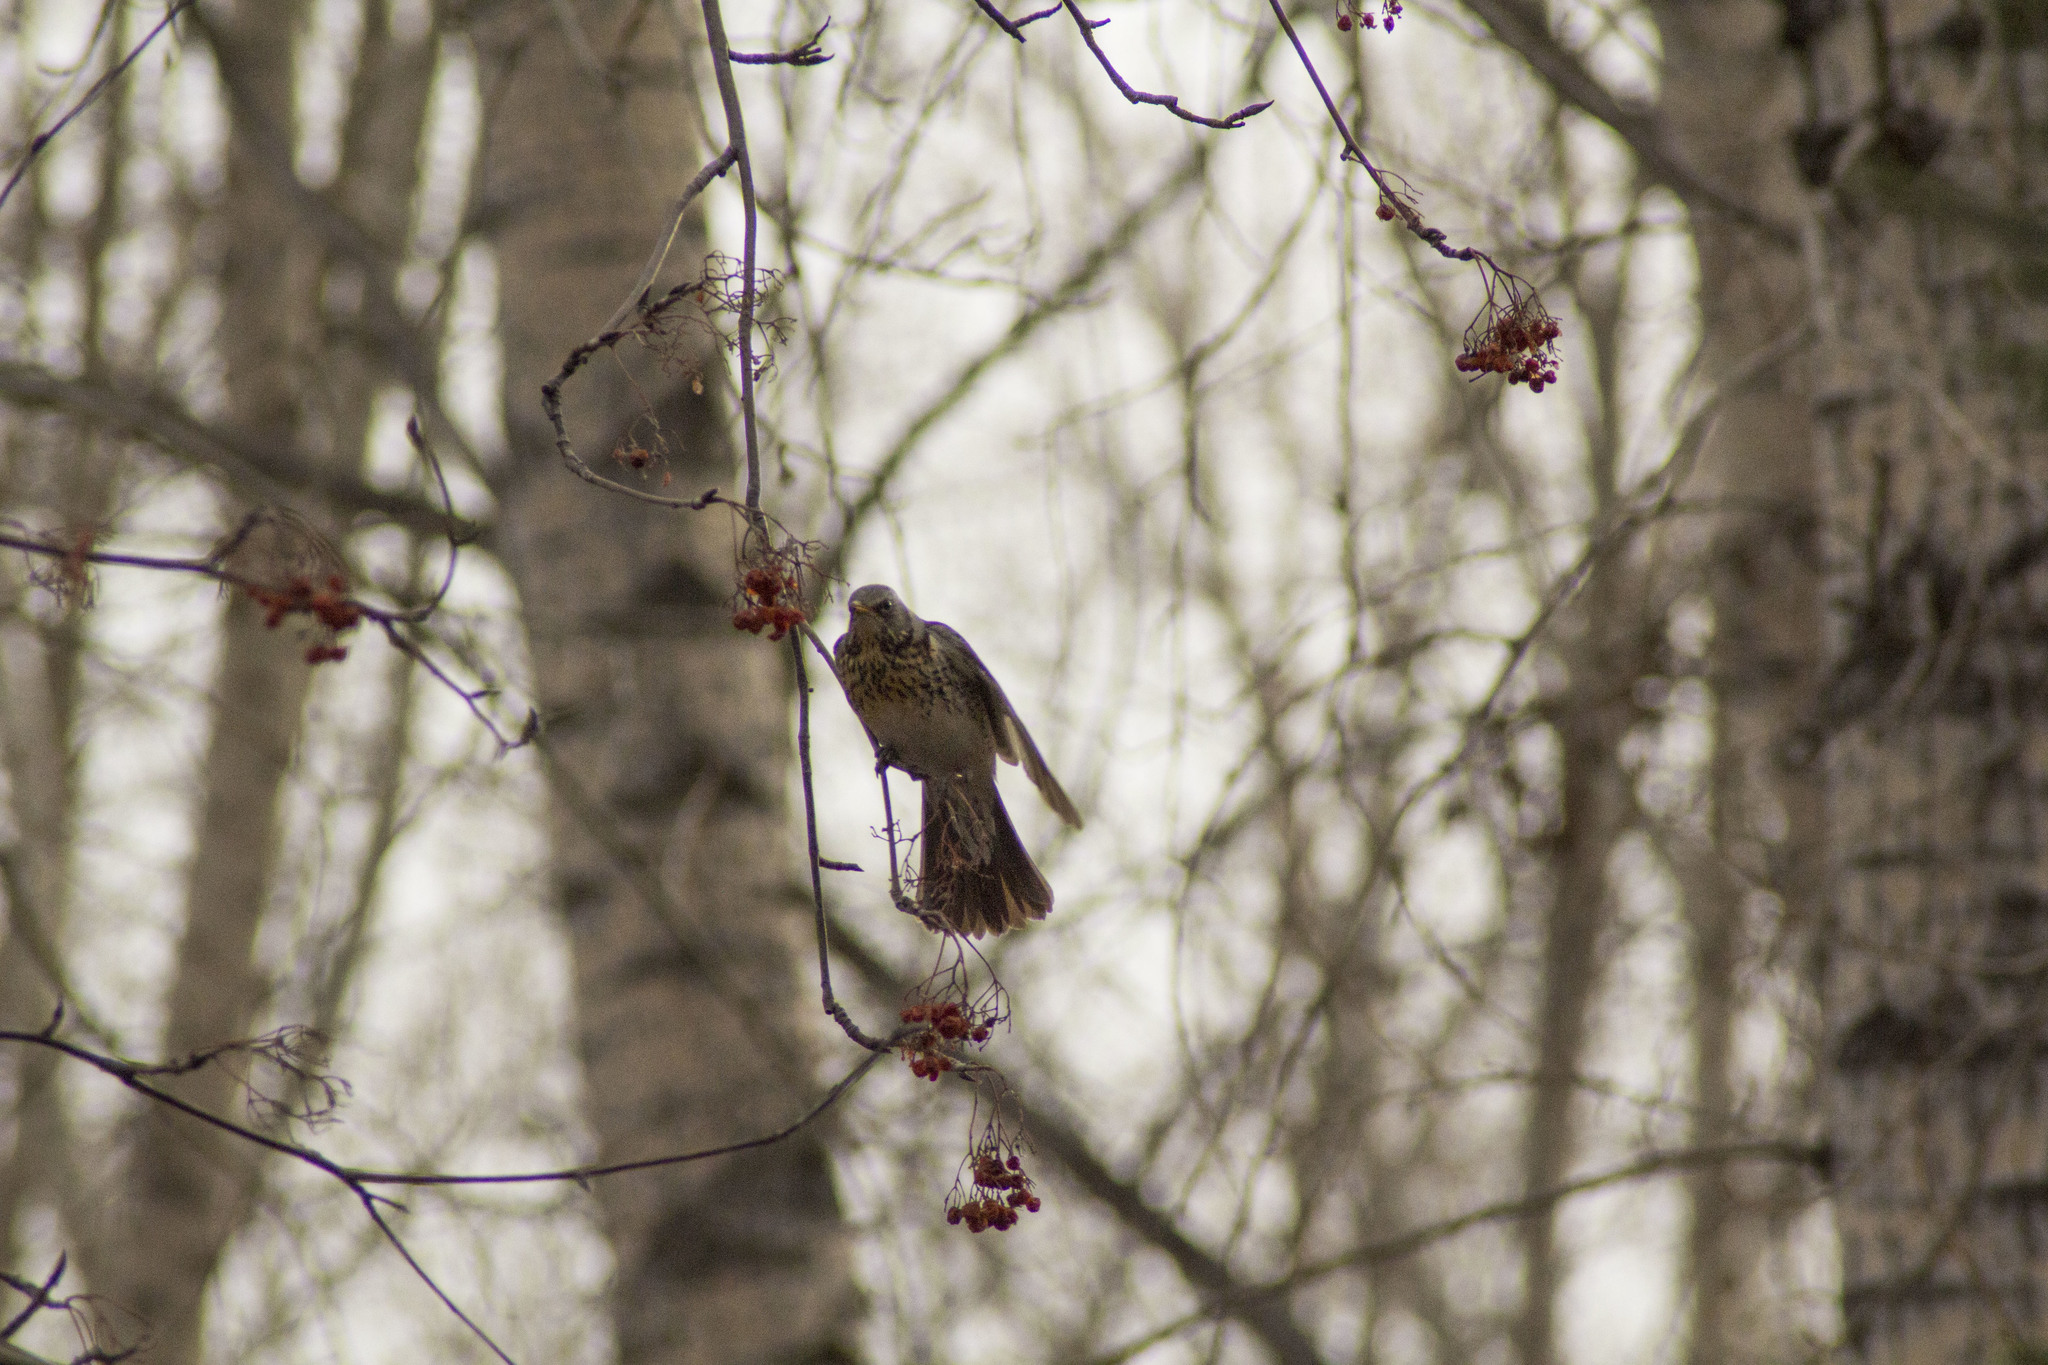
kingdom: Animalia
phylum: Chordata
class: Aves
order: Passeriformes
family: Turdidae
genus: Turdus
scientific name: Turdus pilaris
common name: Fieldfare
